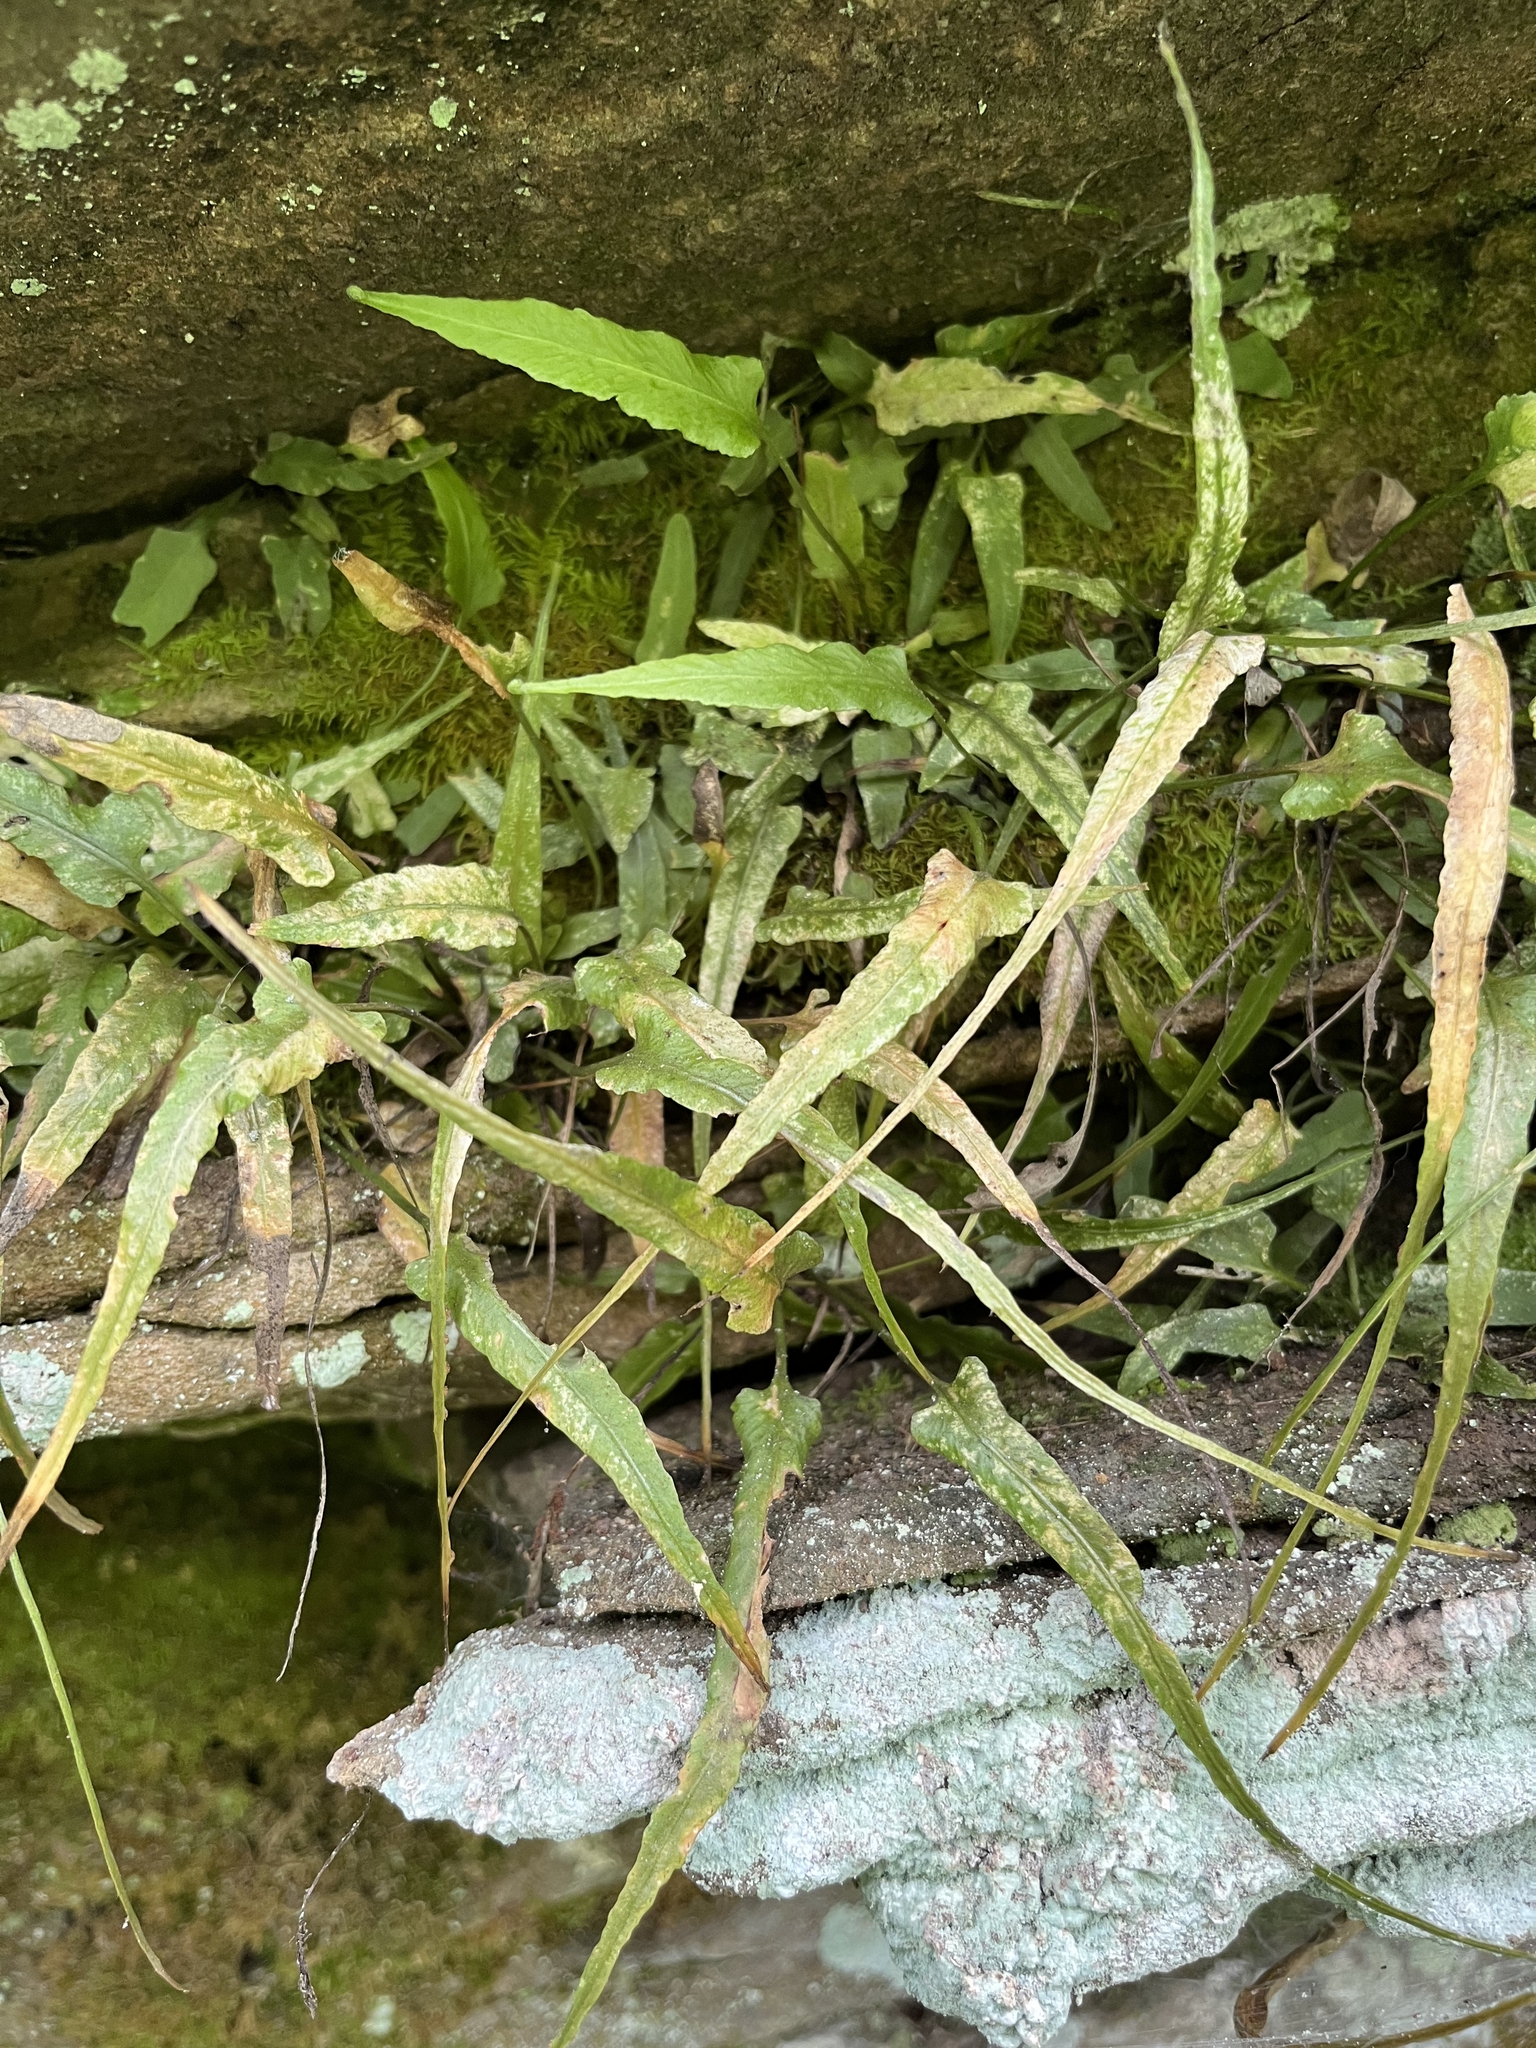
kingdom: Plantae
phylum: Tracheophyta
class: Polypodiopsida
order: Polypodiales
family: Aspleniaceae
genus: Asplenium
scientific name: Asplenium rhizophyllum
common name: Walking fern
